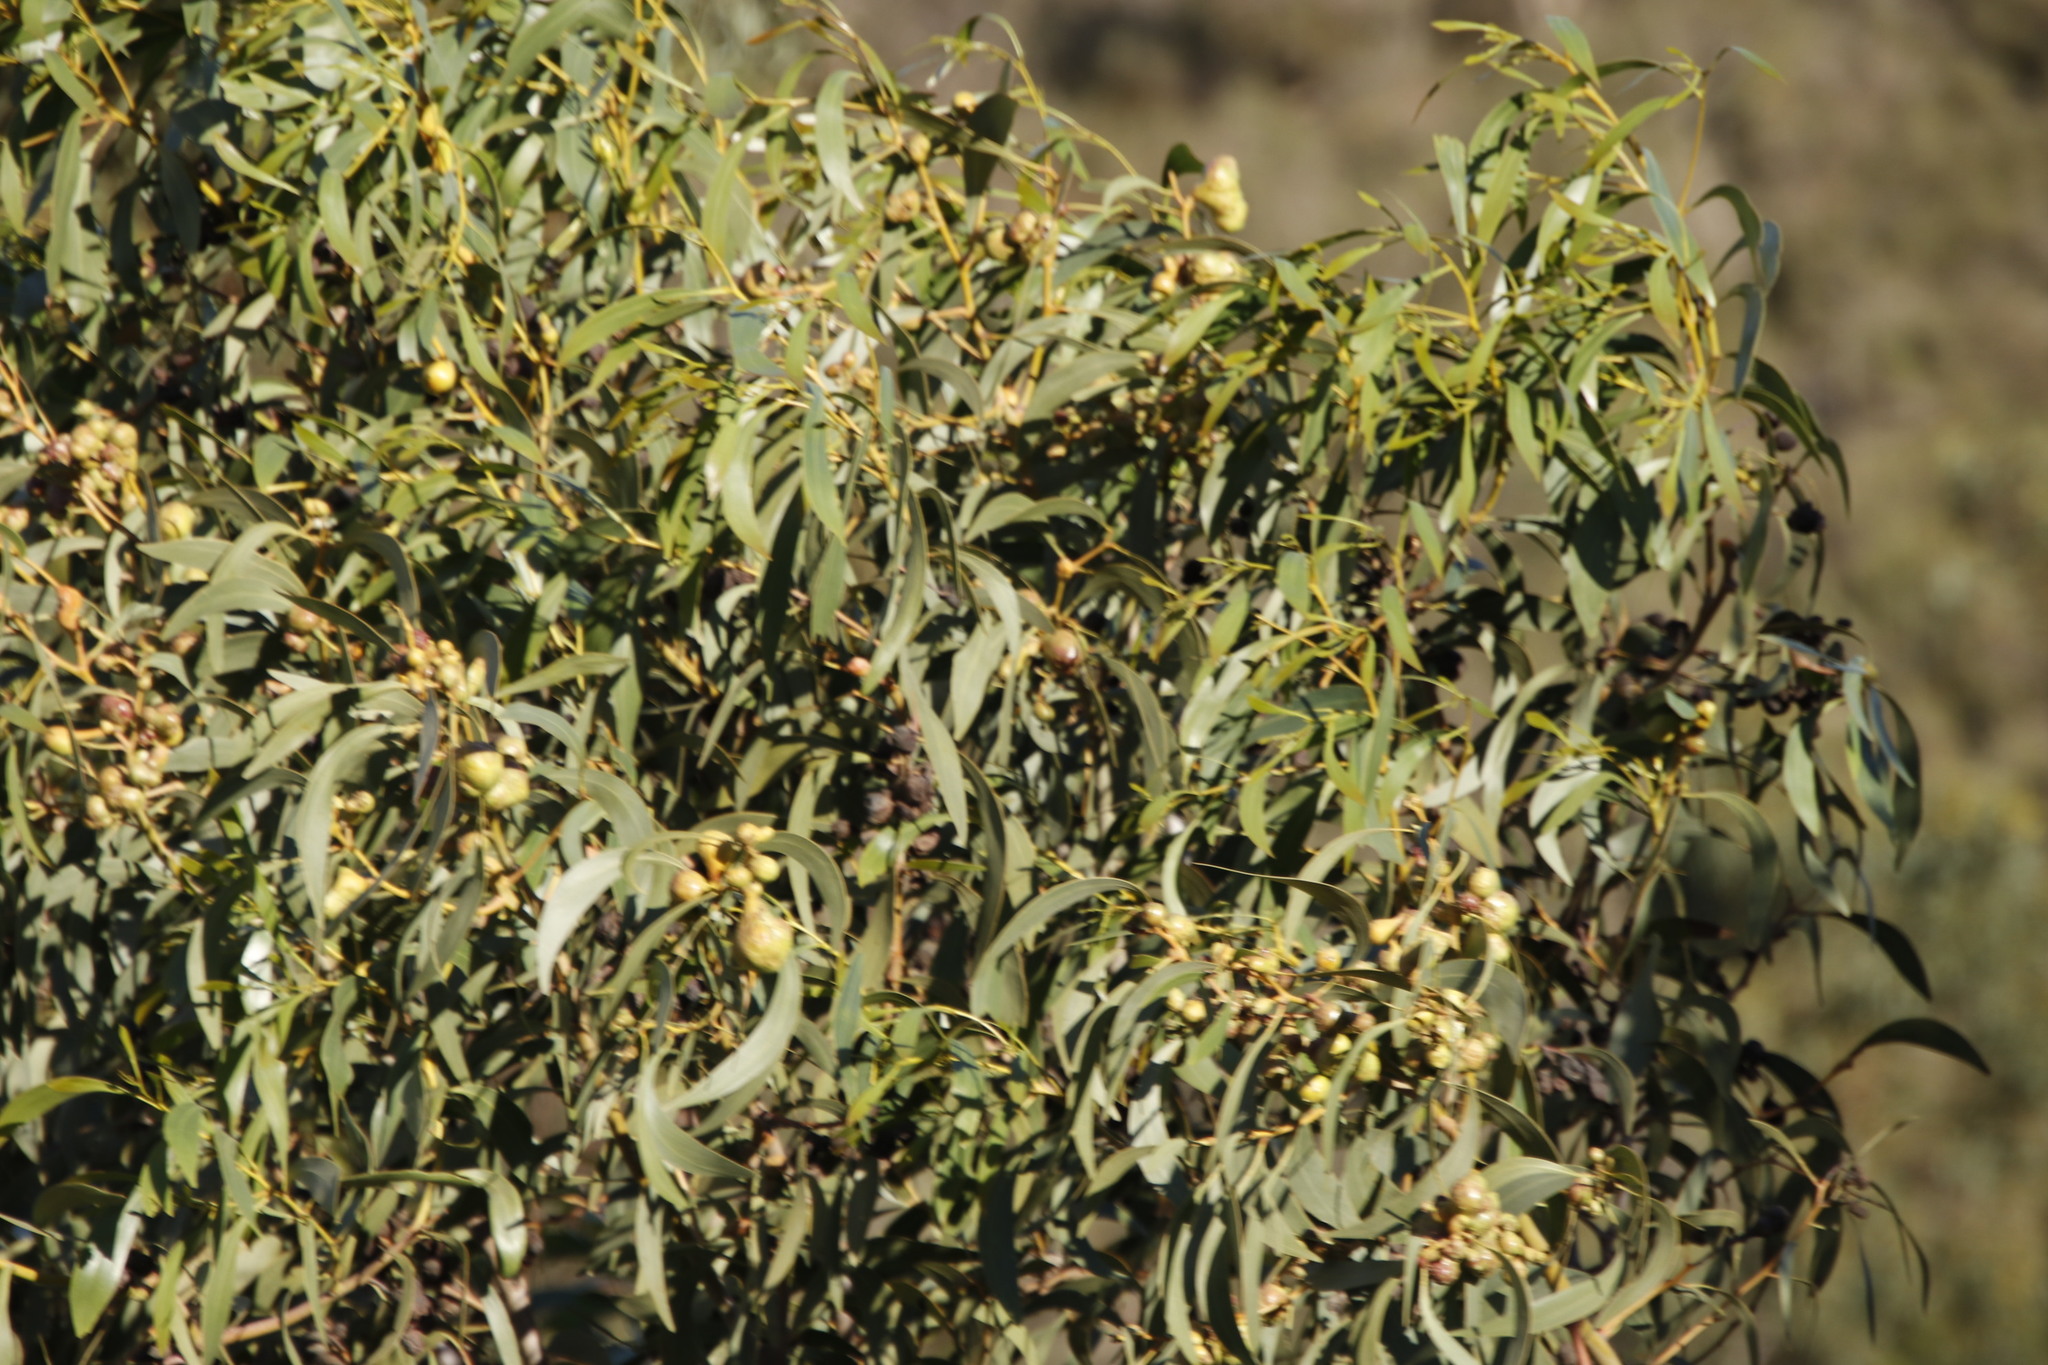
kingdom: Plantae
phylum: Tracheophyta
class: Magnoliopsida
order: Fabales
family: Fabaceae
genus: Acacia
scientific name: Acacia pycnantha
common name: Golden wattle
